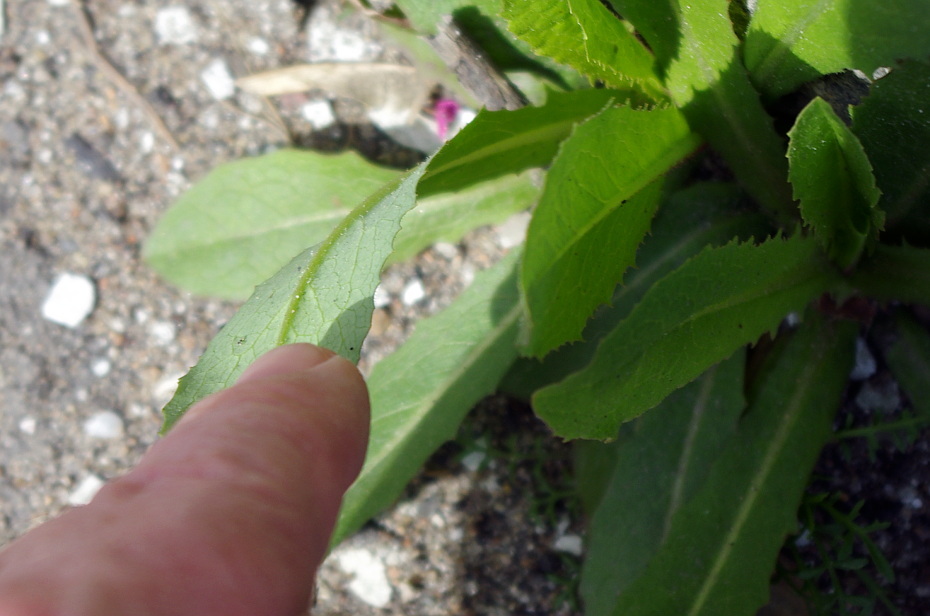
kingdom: Plantae
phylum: Tracheophyta
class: Magnoliopsida
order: Asterales
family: Asteraceae
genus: Lactuca
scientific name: Lactuca serriola
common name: Prickly lettuce
